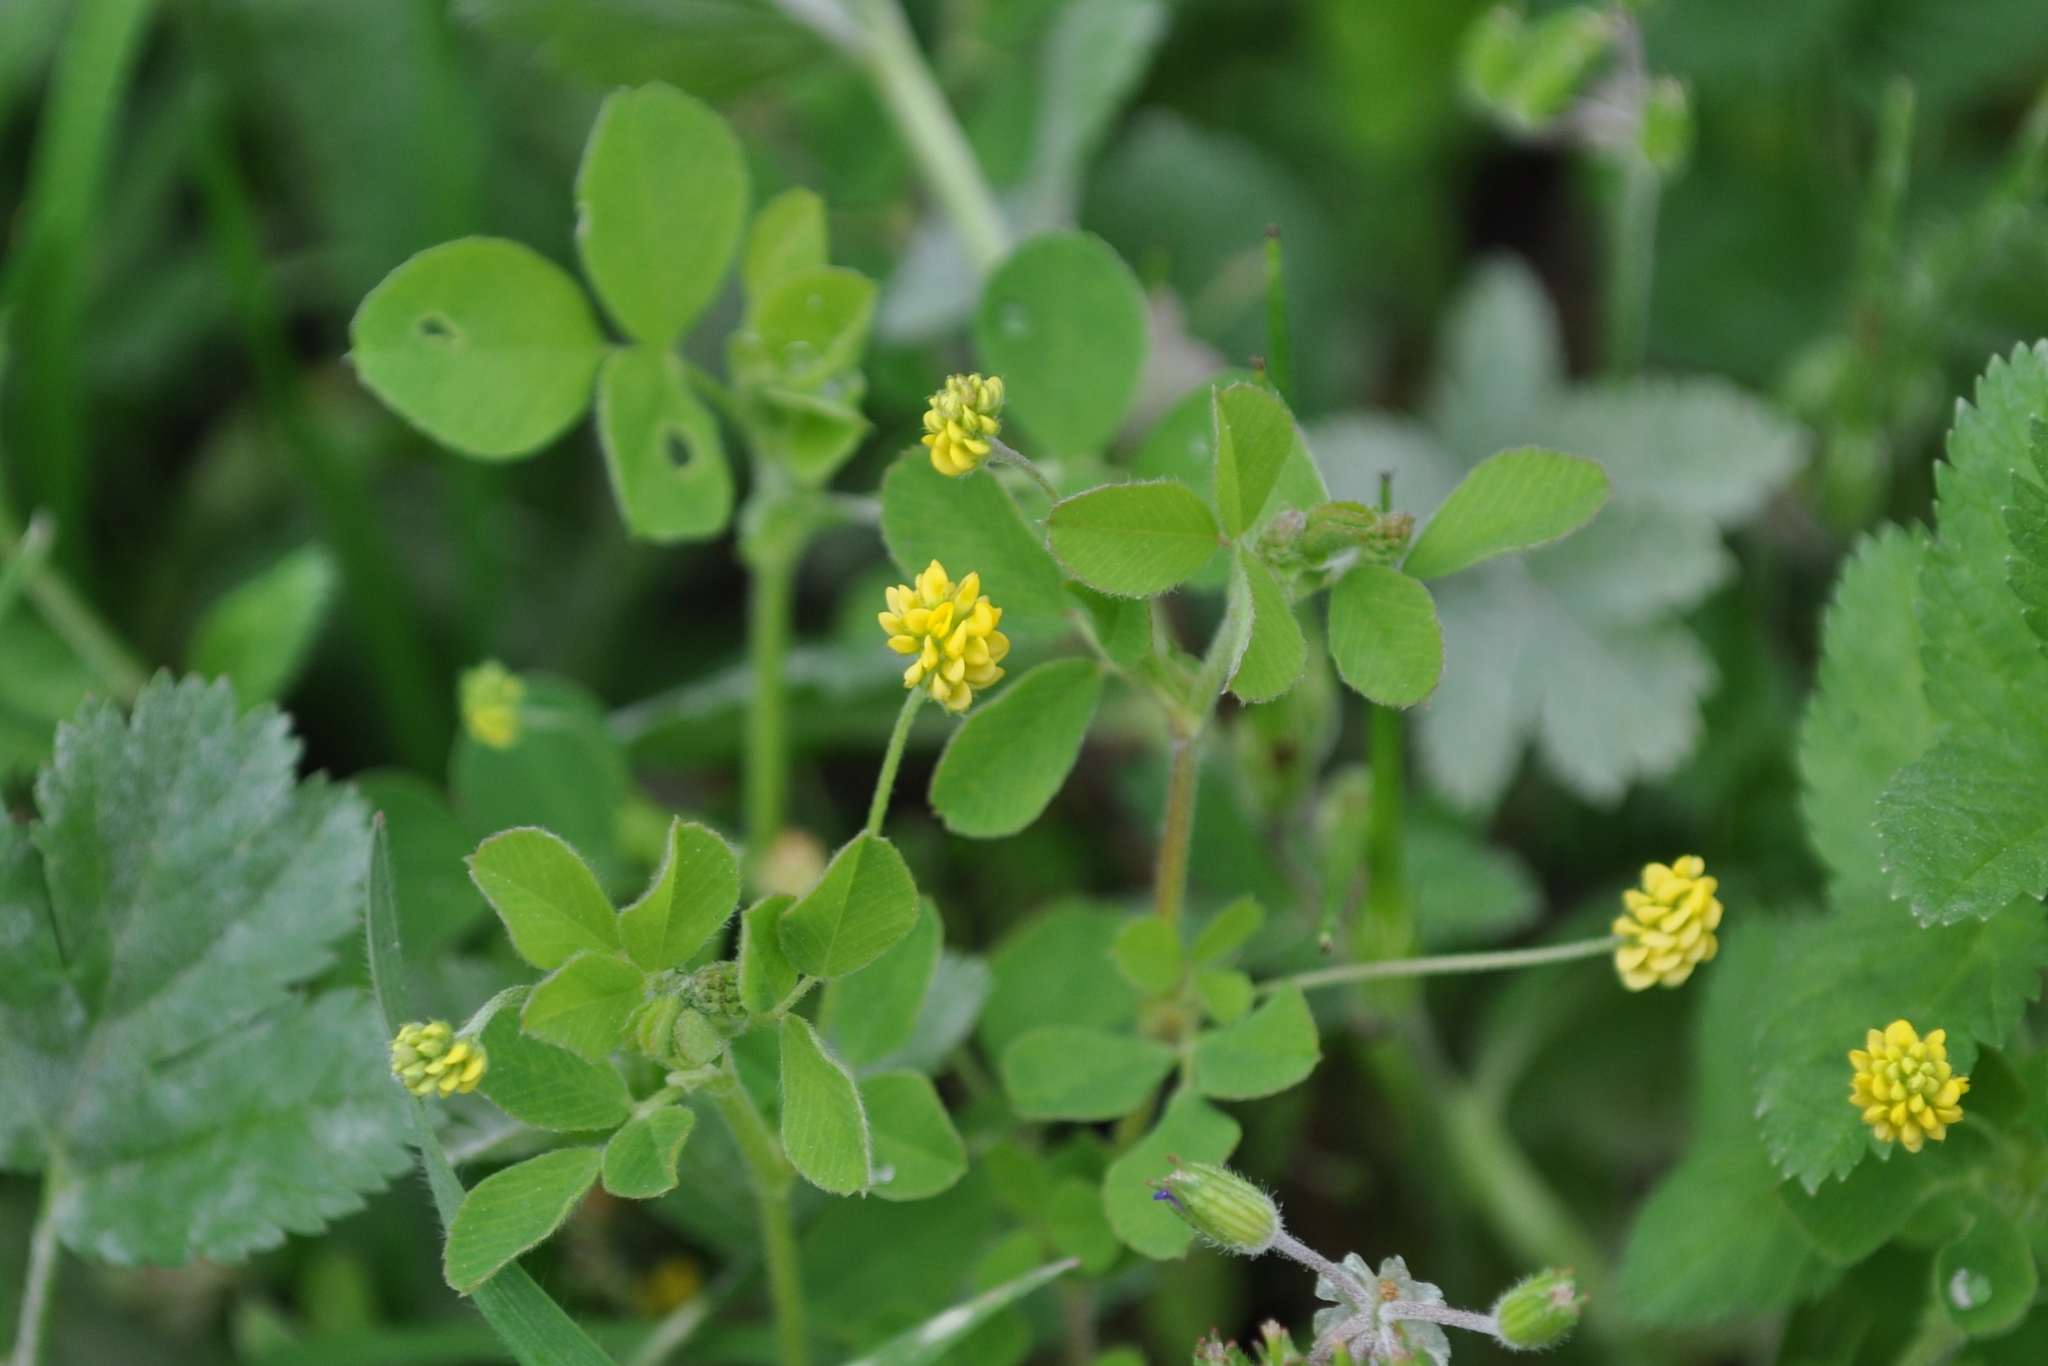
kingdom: Plantae
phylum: Tracheophyta
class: Magnoliopsida
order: Fabales
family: Fabaceae
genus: Medicago
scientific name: Medicago lupulina
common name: Black medick
